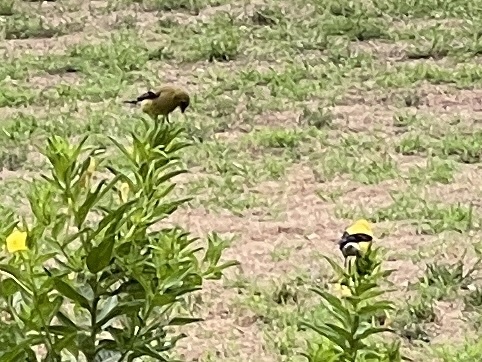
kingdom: Animalia
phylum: Chordata
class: Aves
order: Passeriformes
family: Fringillidae
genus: Spinus
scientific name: Spinus tristis
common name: American goldfinch
